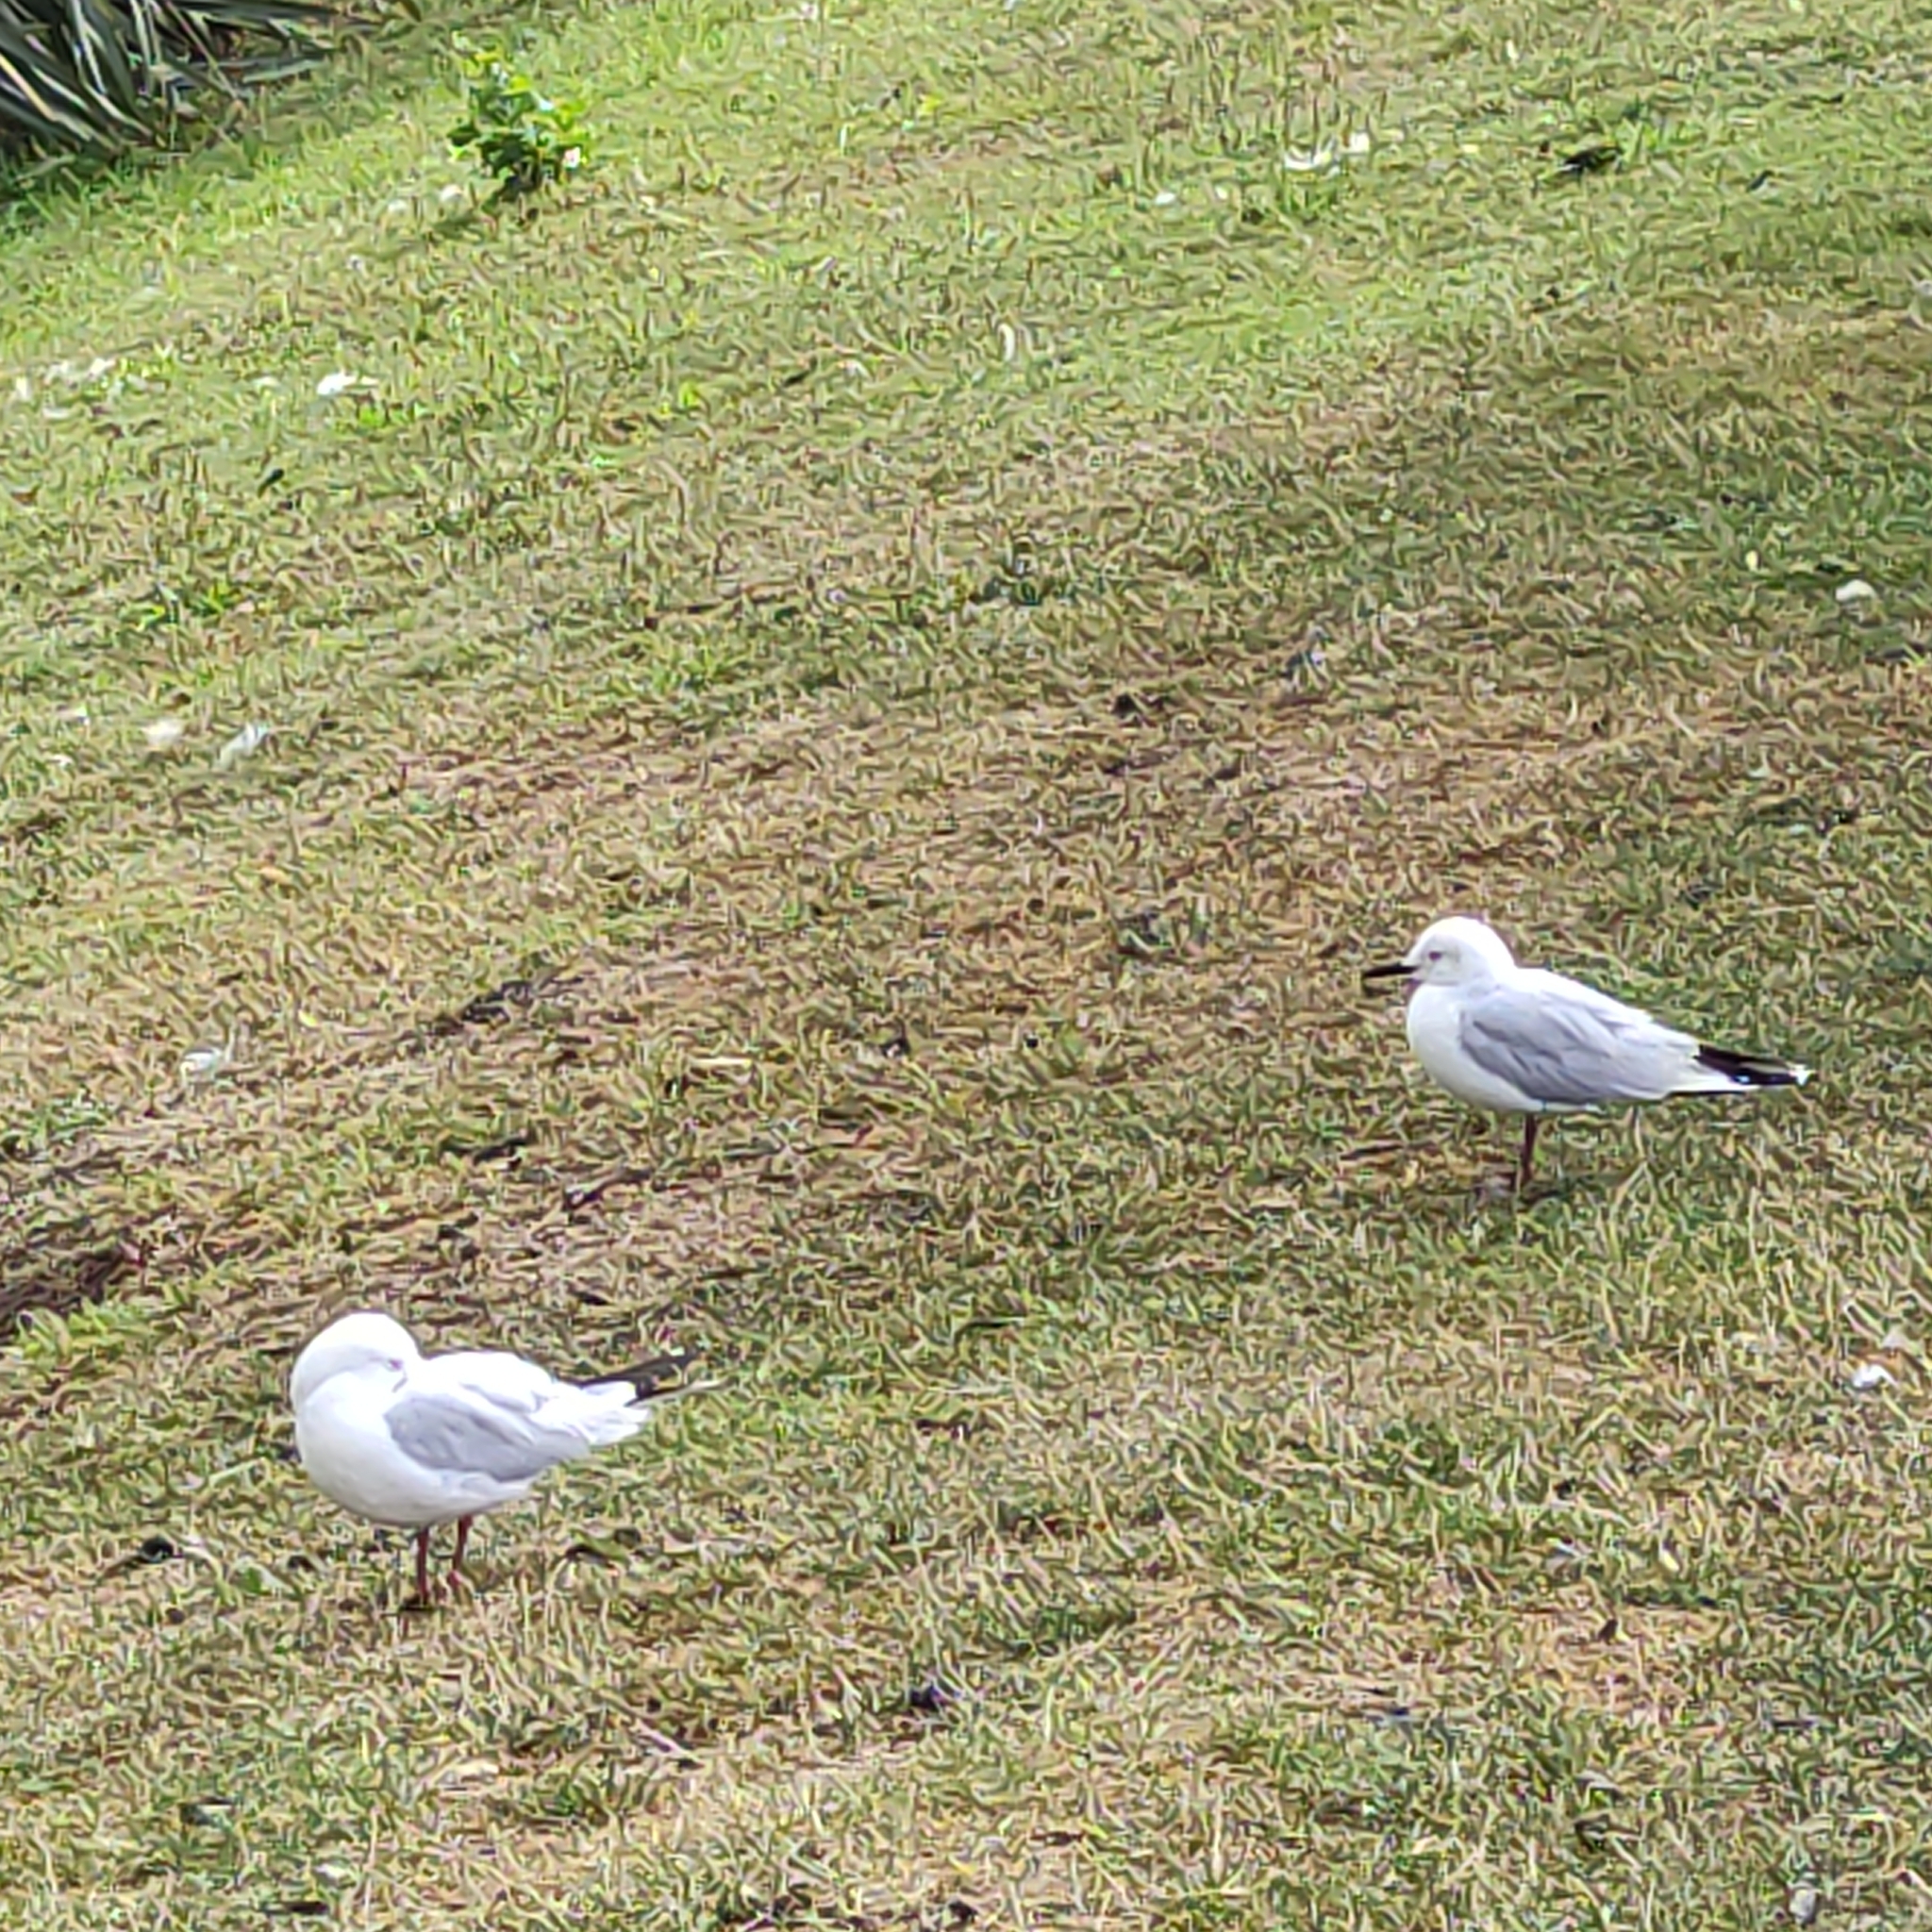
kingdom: Animalia
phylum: Chordata
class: Aves
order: Charadriiformes
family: Laridae
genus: Chroicocephalus
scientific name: Chroicocephalus bulleri
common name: Black-billed gull
